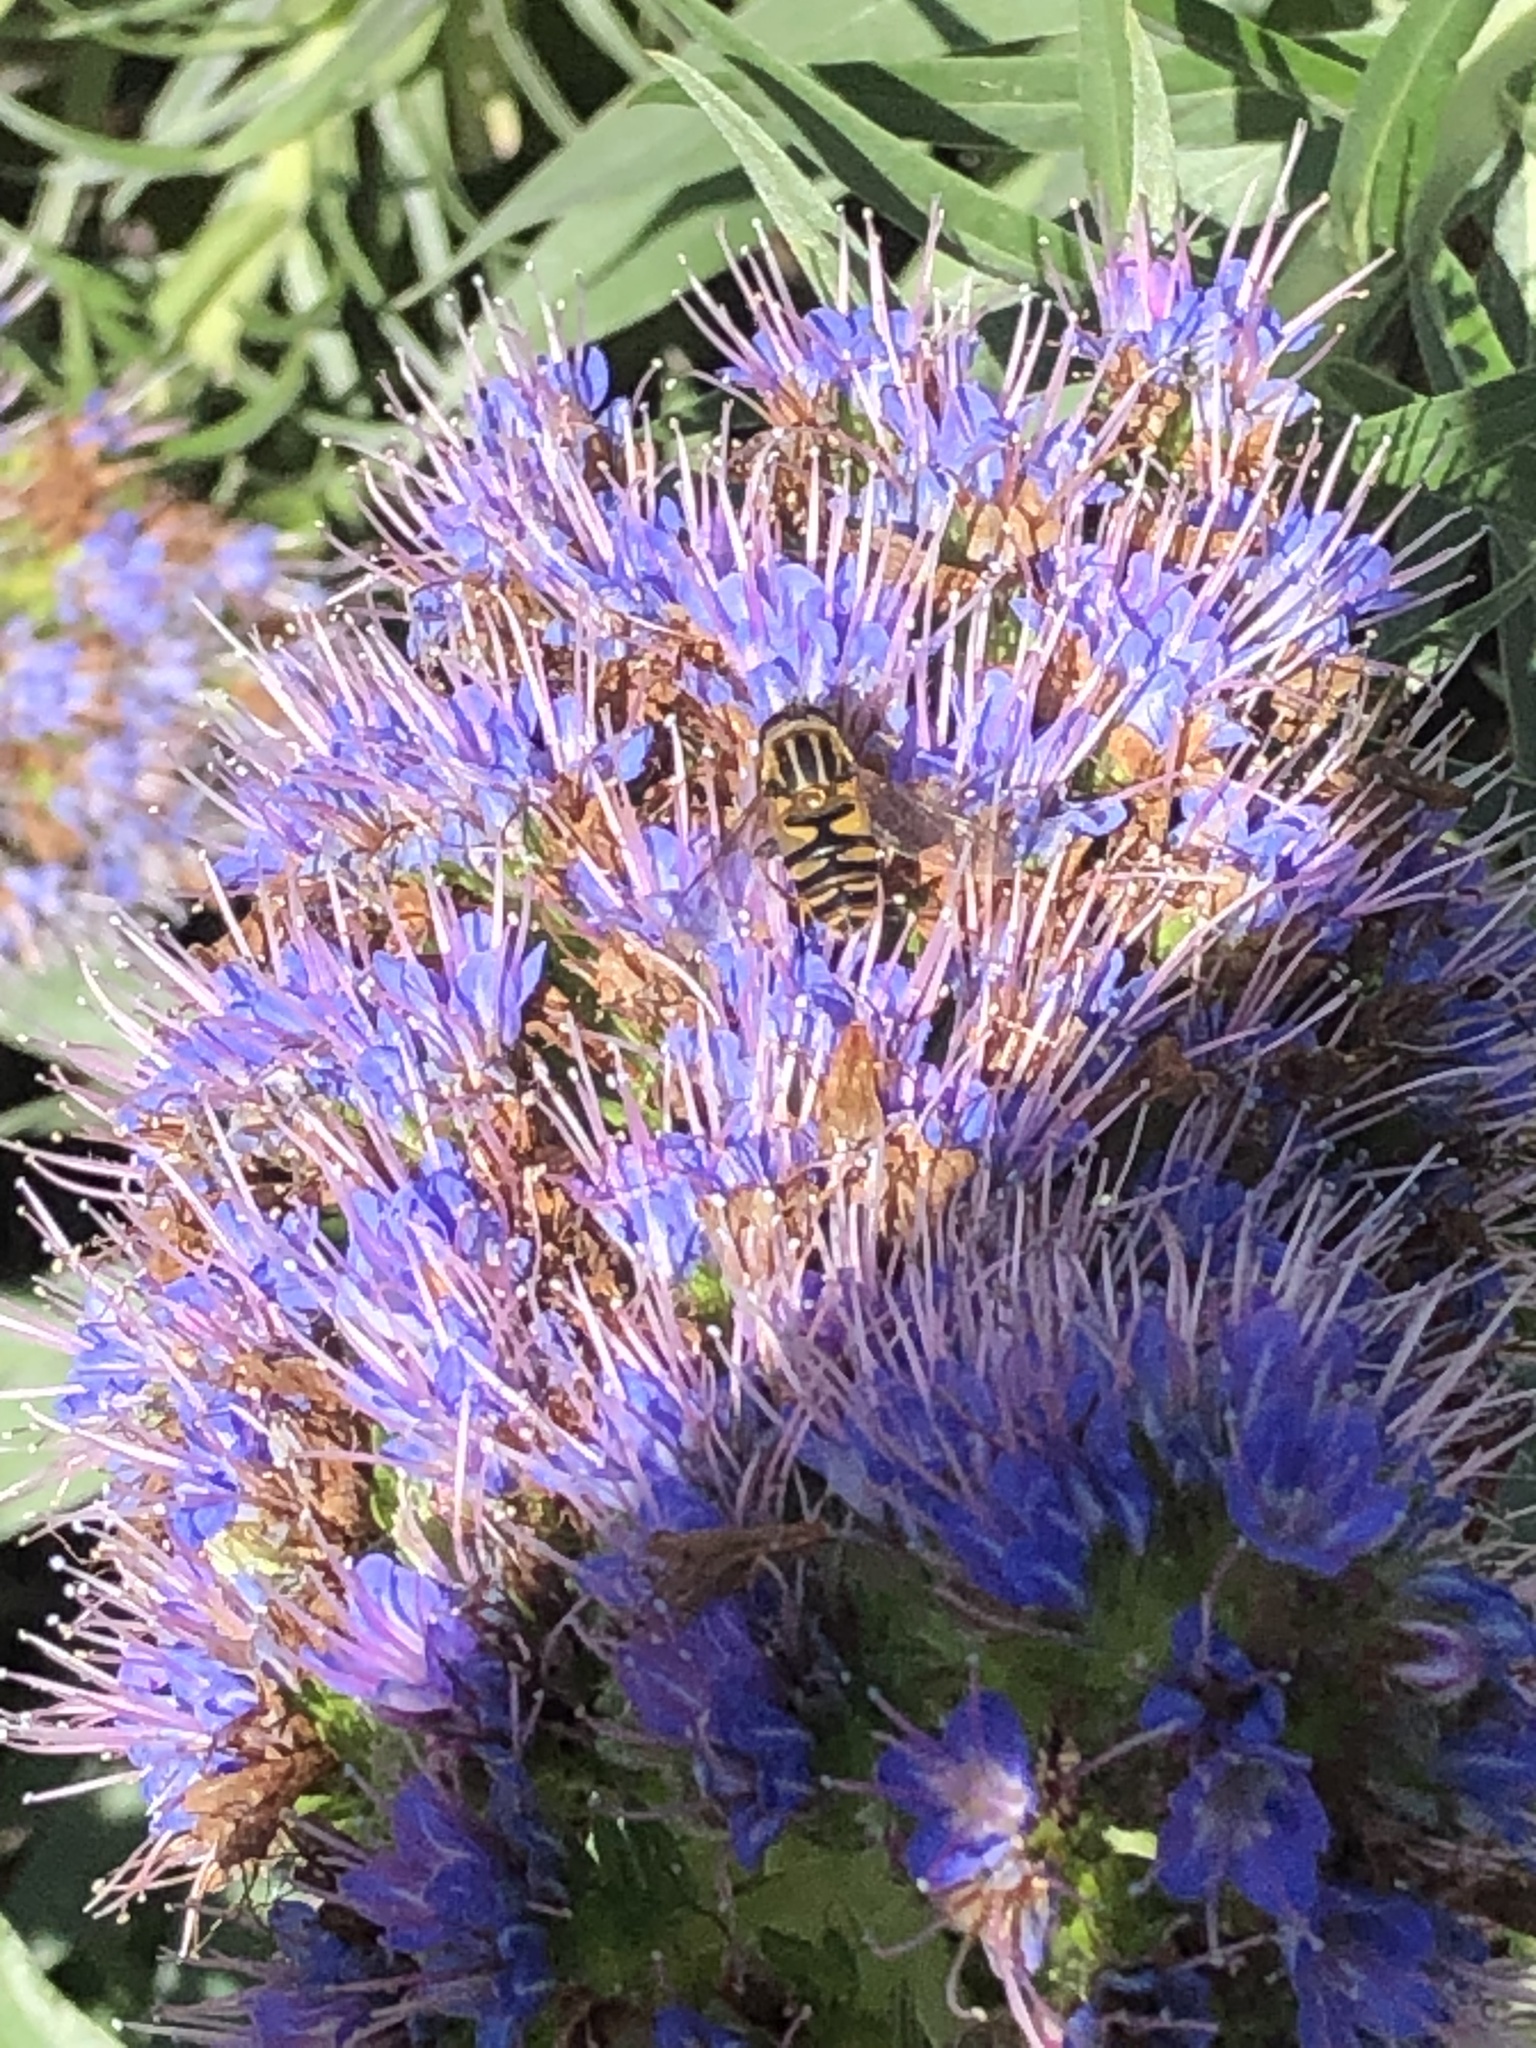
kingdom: Animalia
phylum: Arthropoda
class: Insecta
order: Diptera
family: Syrphidae
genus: Helophilus
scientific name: Helophilus fasciatus
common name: Narrow-headed marsh fly
